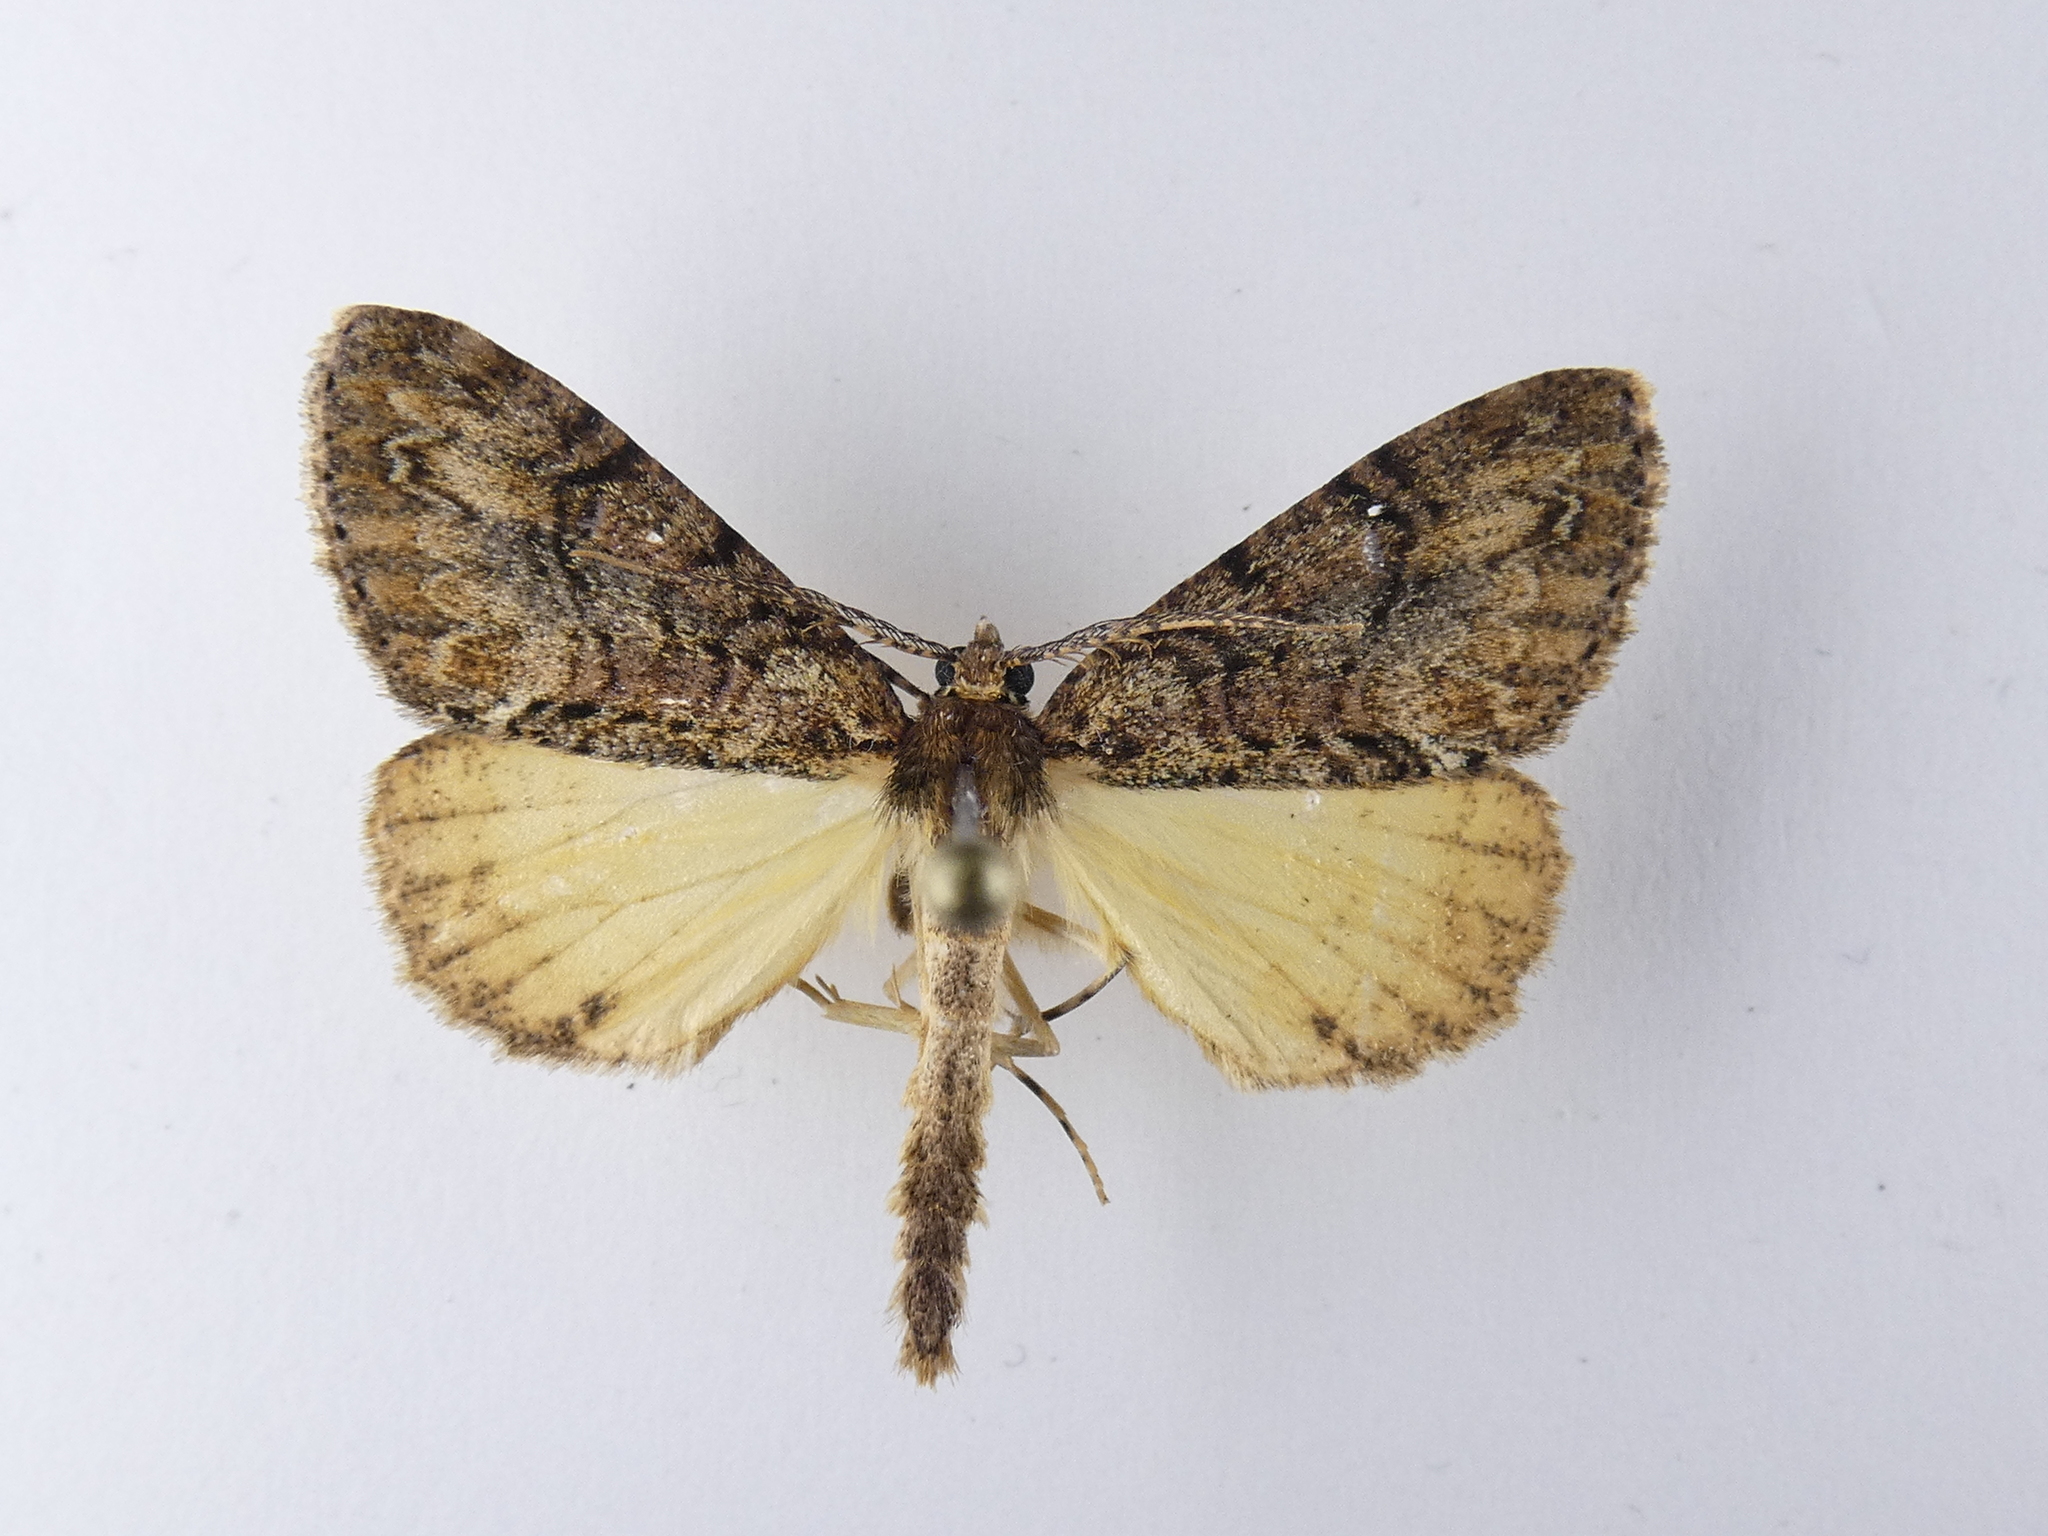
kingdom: Animalia
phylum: Arthropoda
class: Insecta
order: Lepidoptera
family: Geometridae
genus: Pseudocoremia
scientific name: Pseudocoremia suavis
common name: Common forest looper
